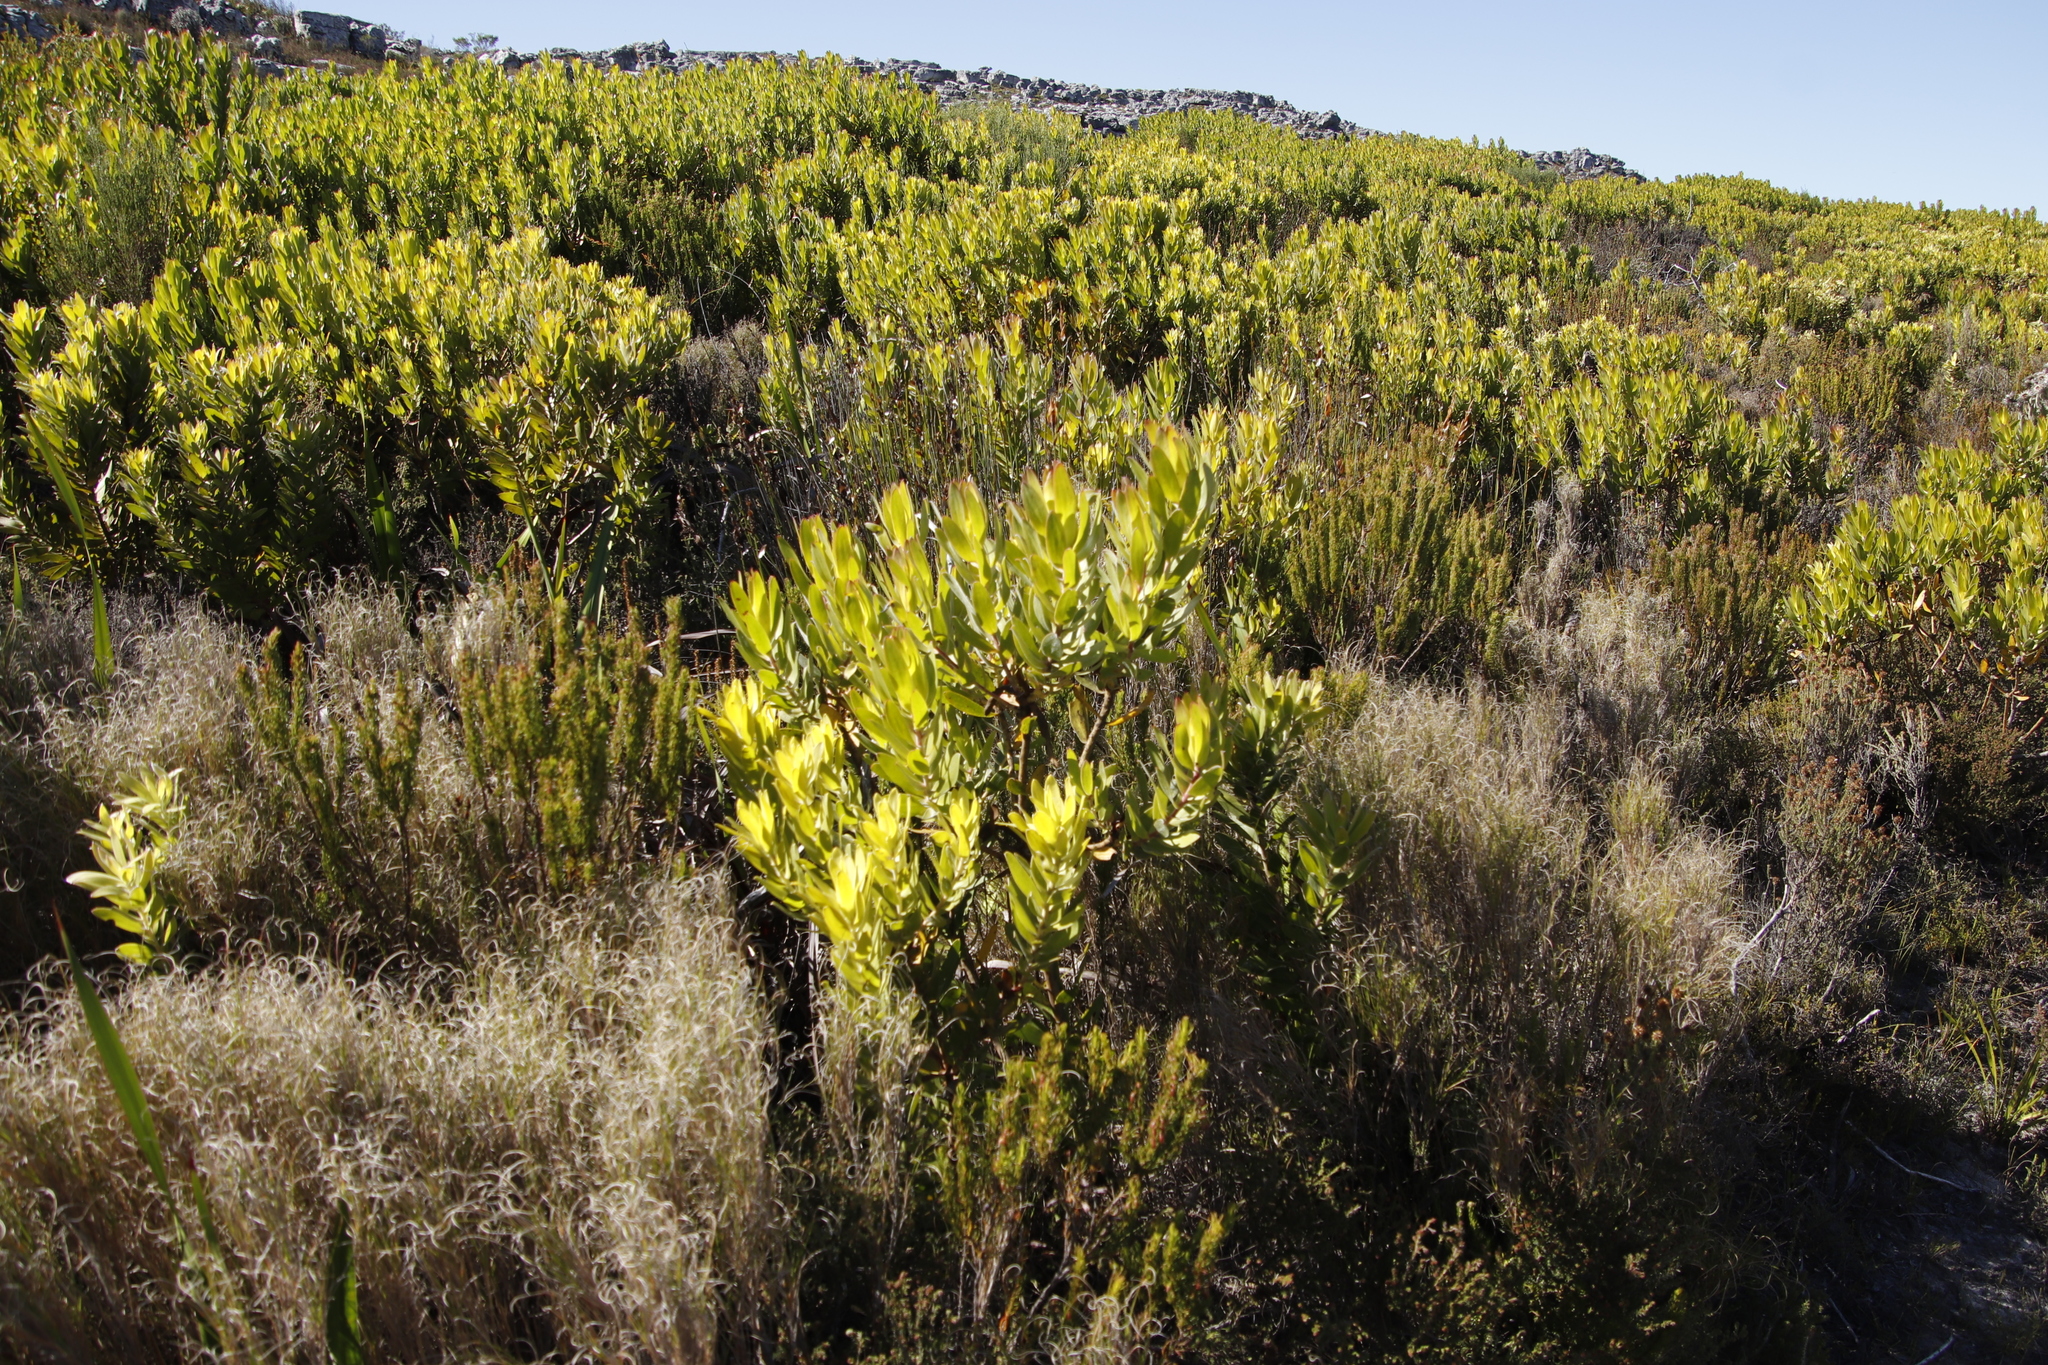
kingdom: Plantae
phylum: Tracheophyta
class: Magnoliopsida
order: Proteales
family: Proteaceae
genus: Leucadendron
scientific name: Leucadendron laureolum
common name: Golden sunshinebush
